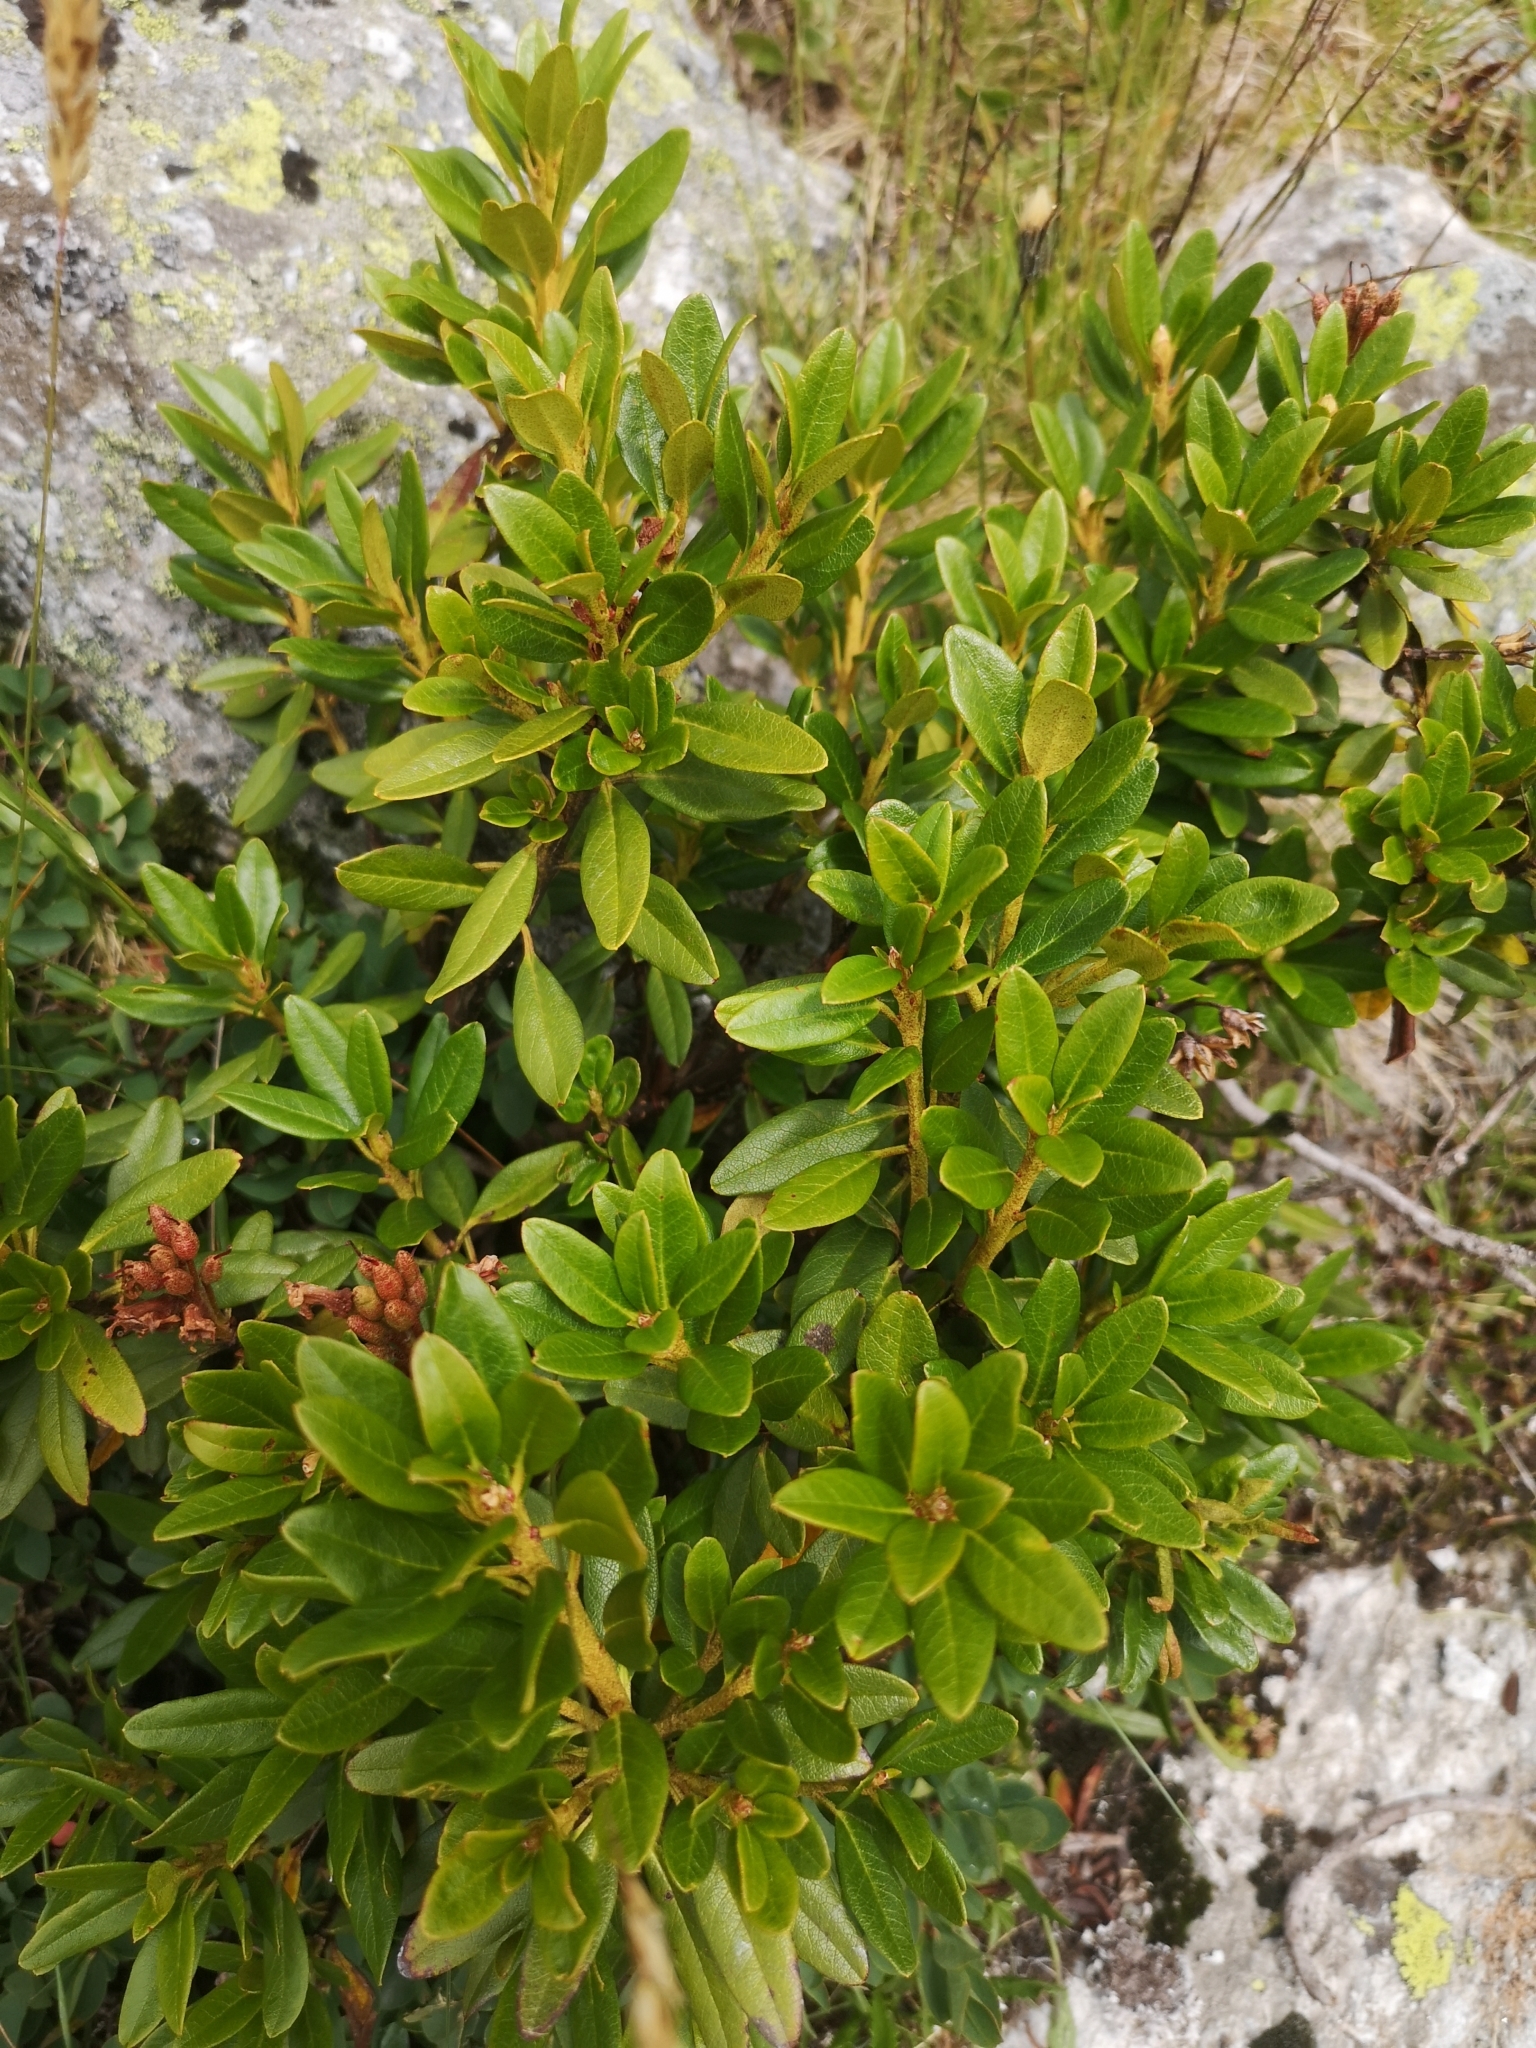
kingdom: Plantae
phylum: Tracheophyta
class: Magnoliopsida
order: Ericales
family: Ericaceae
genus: Rhododendron
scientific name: Rhododendron ferrugineum
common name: Alpenrose
